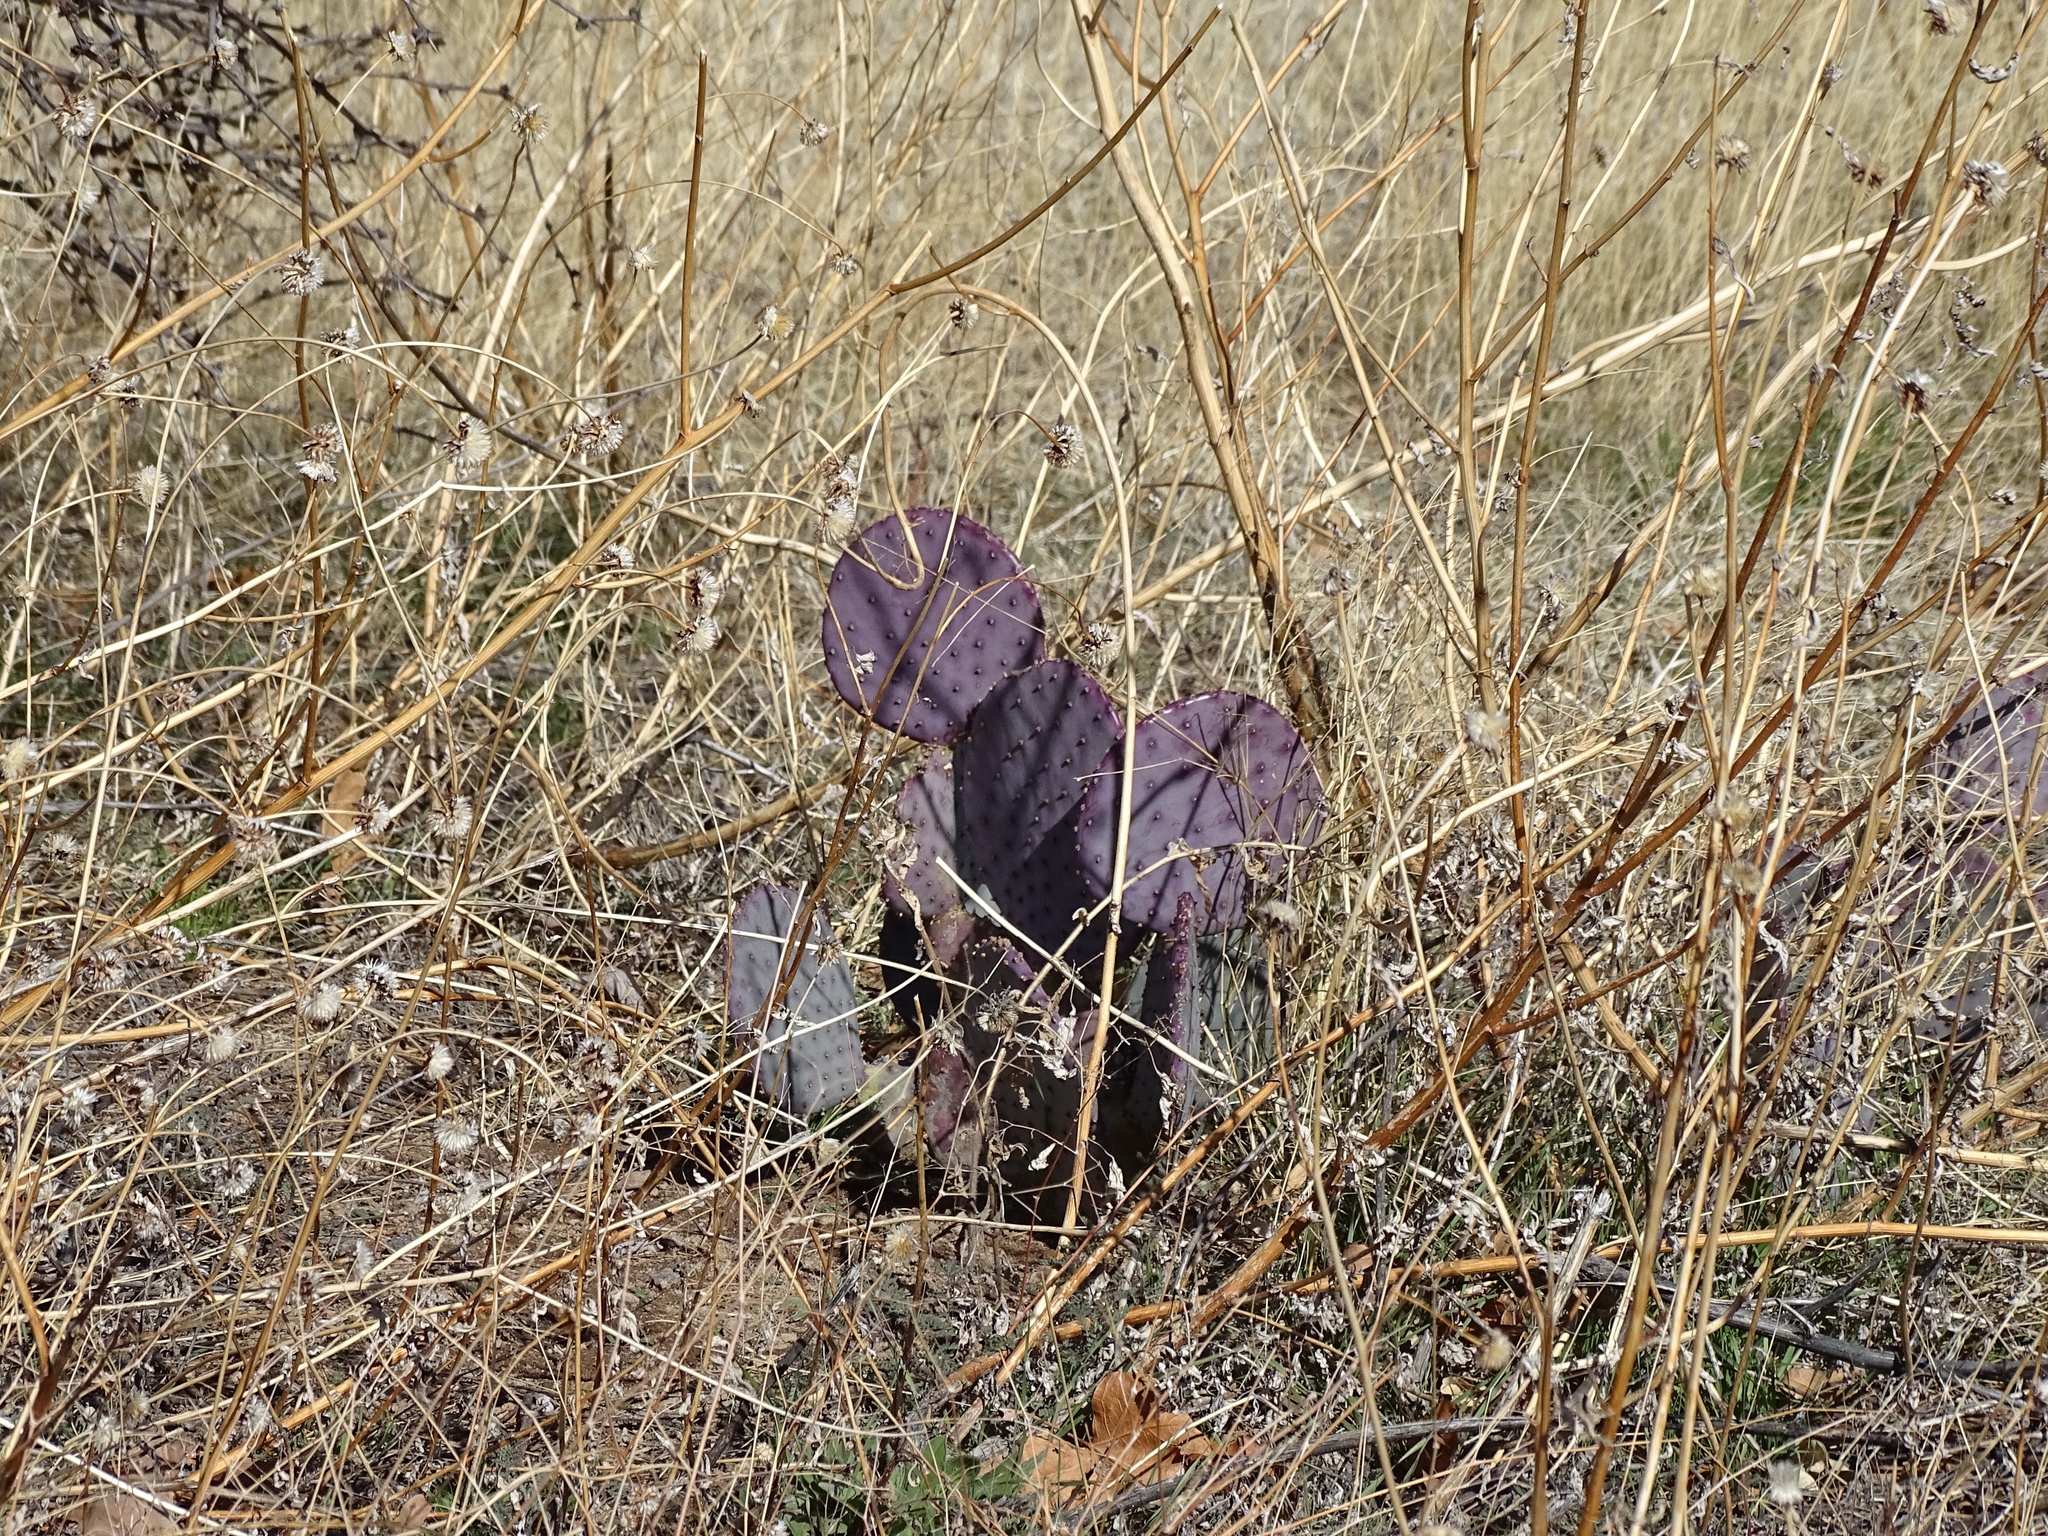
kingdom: Plantae
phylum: Tracheophyta
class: Magnoliopsida
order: Caryophyllales
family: Cactaceae
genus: Opuntia
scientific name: Opuntia macrocentra
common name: Purple prickly-pear
